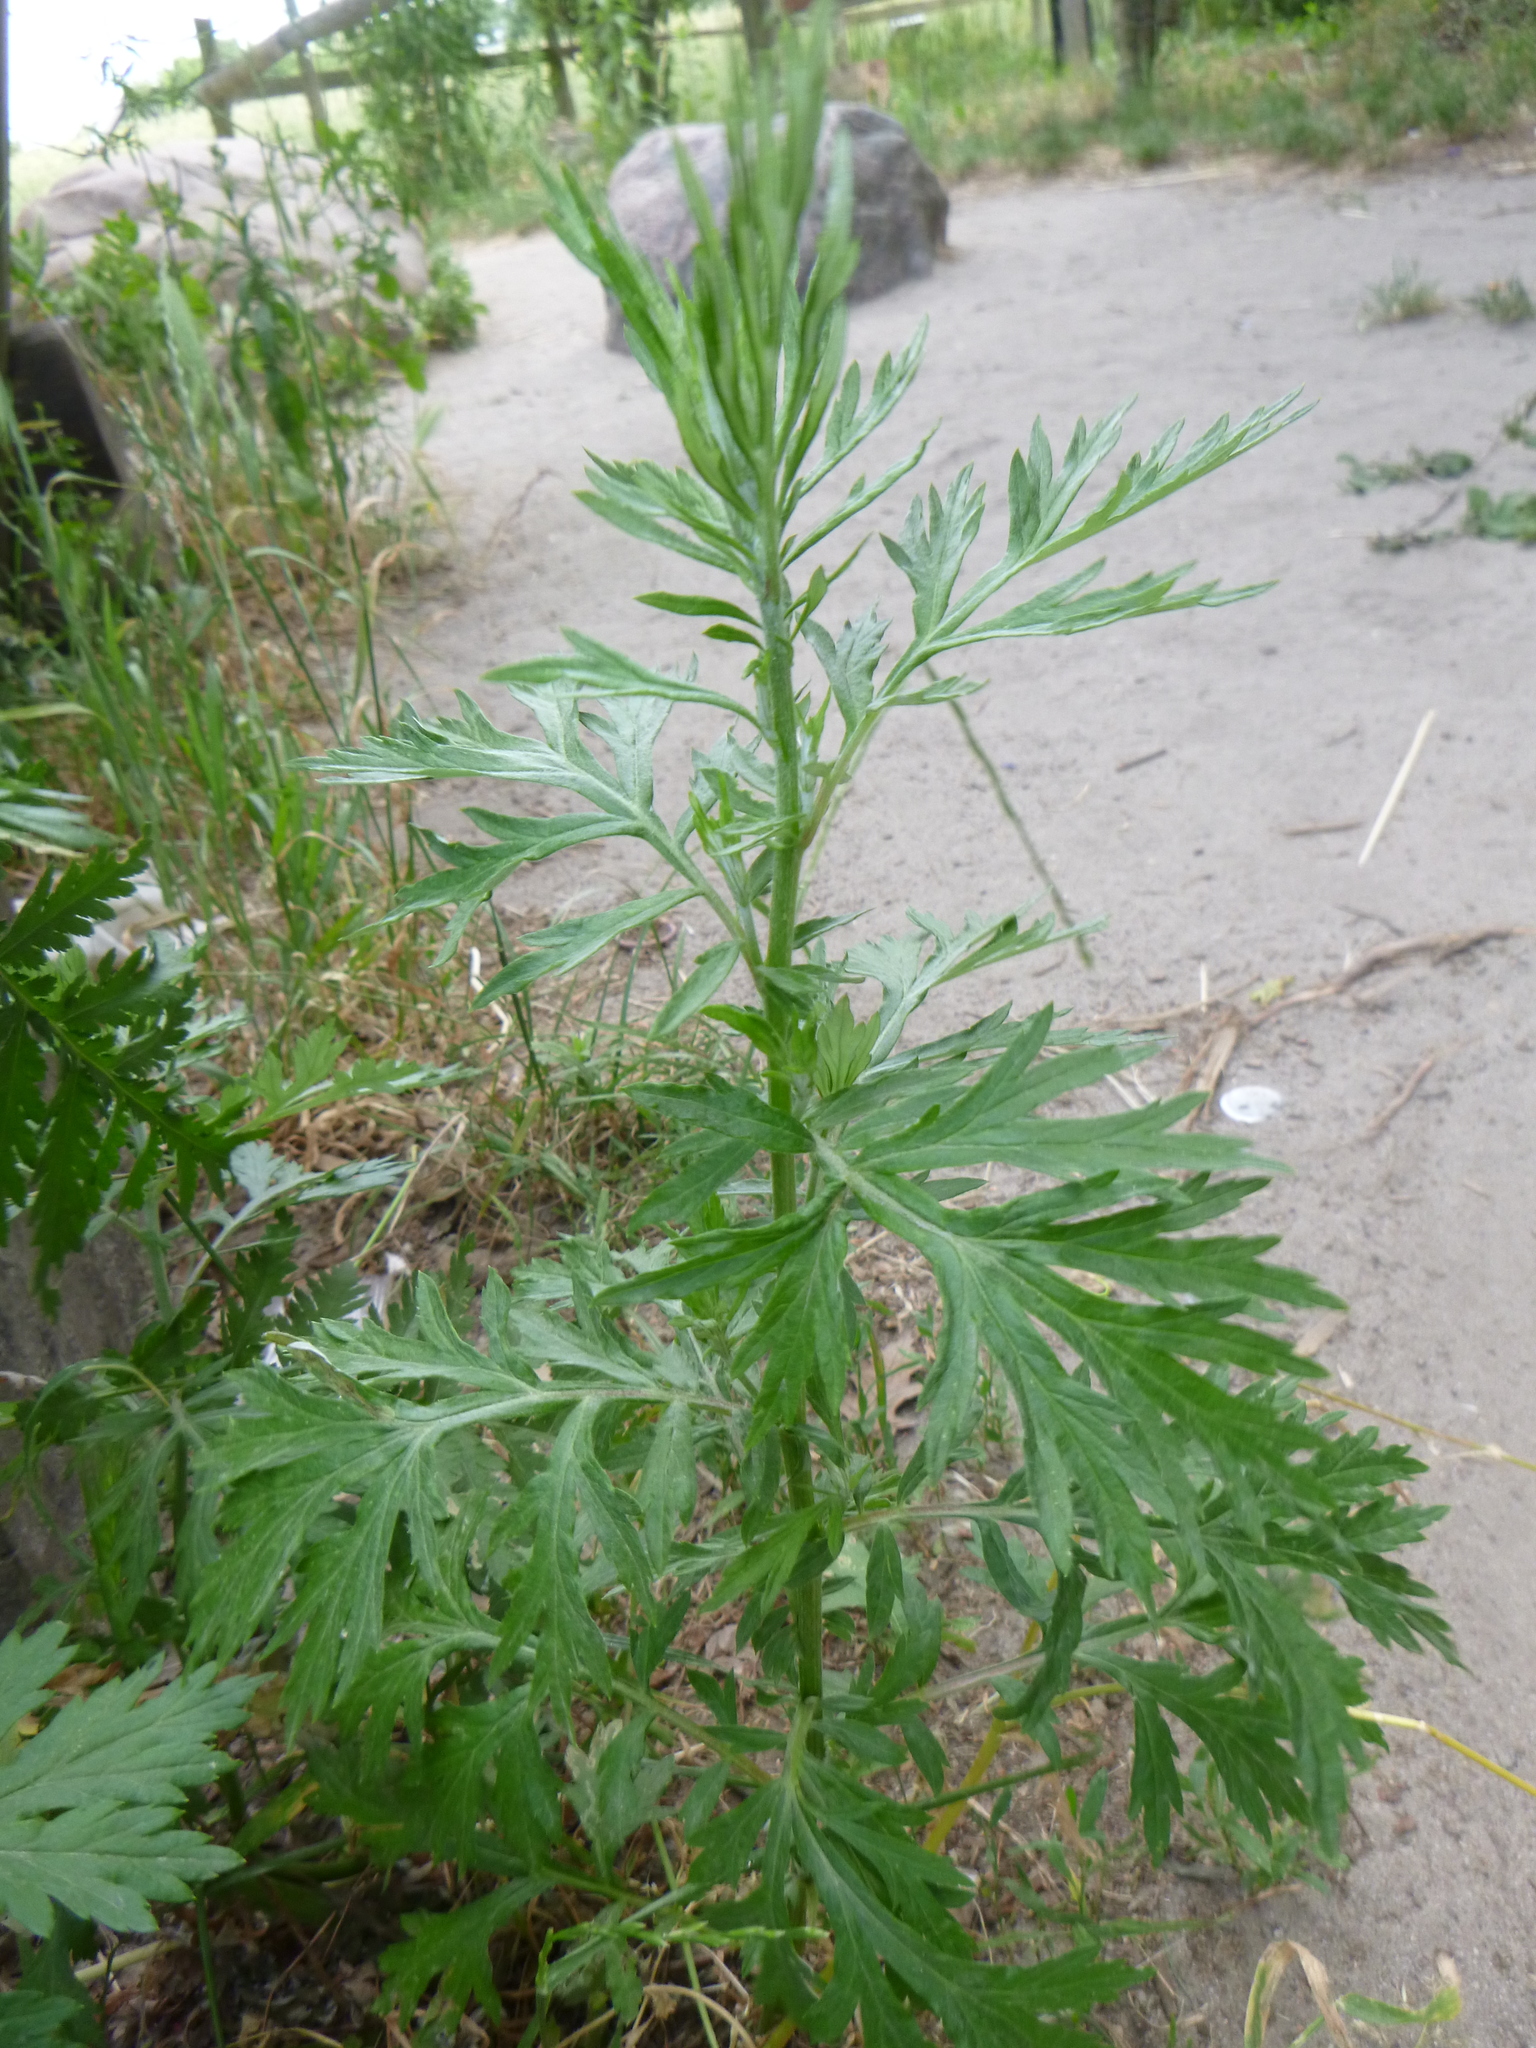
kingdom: Plantae
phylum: Tracheophyta
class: Magnoliopsida
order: Asterales
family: Asteraceae
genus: Artemisia
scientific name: Artemisia vulgaris
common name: Mugwort
